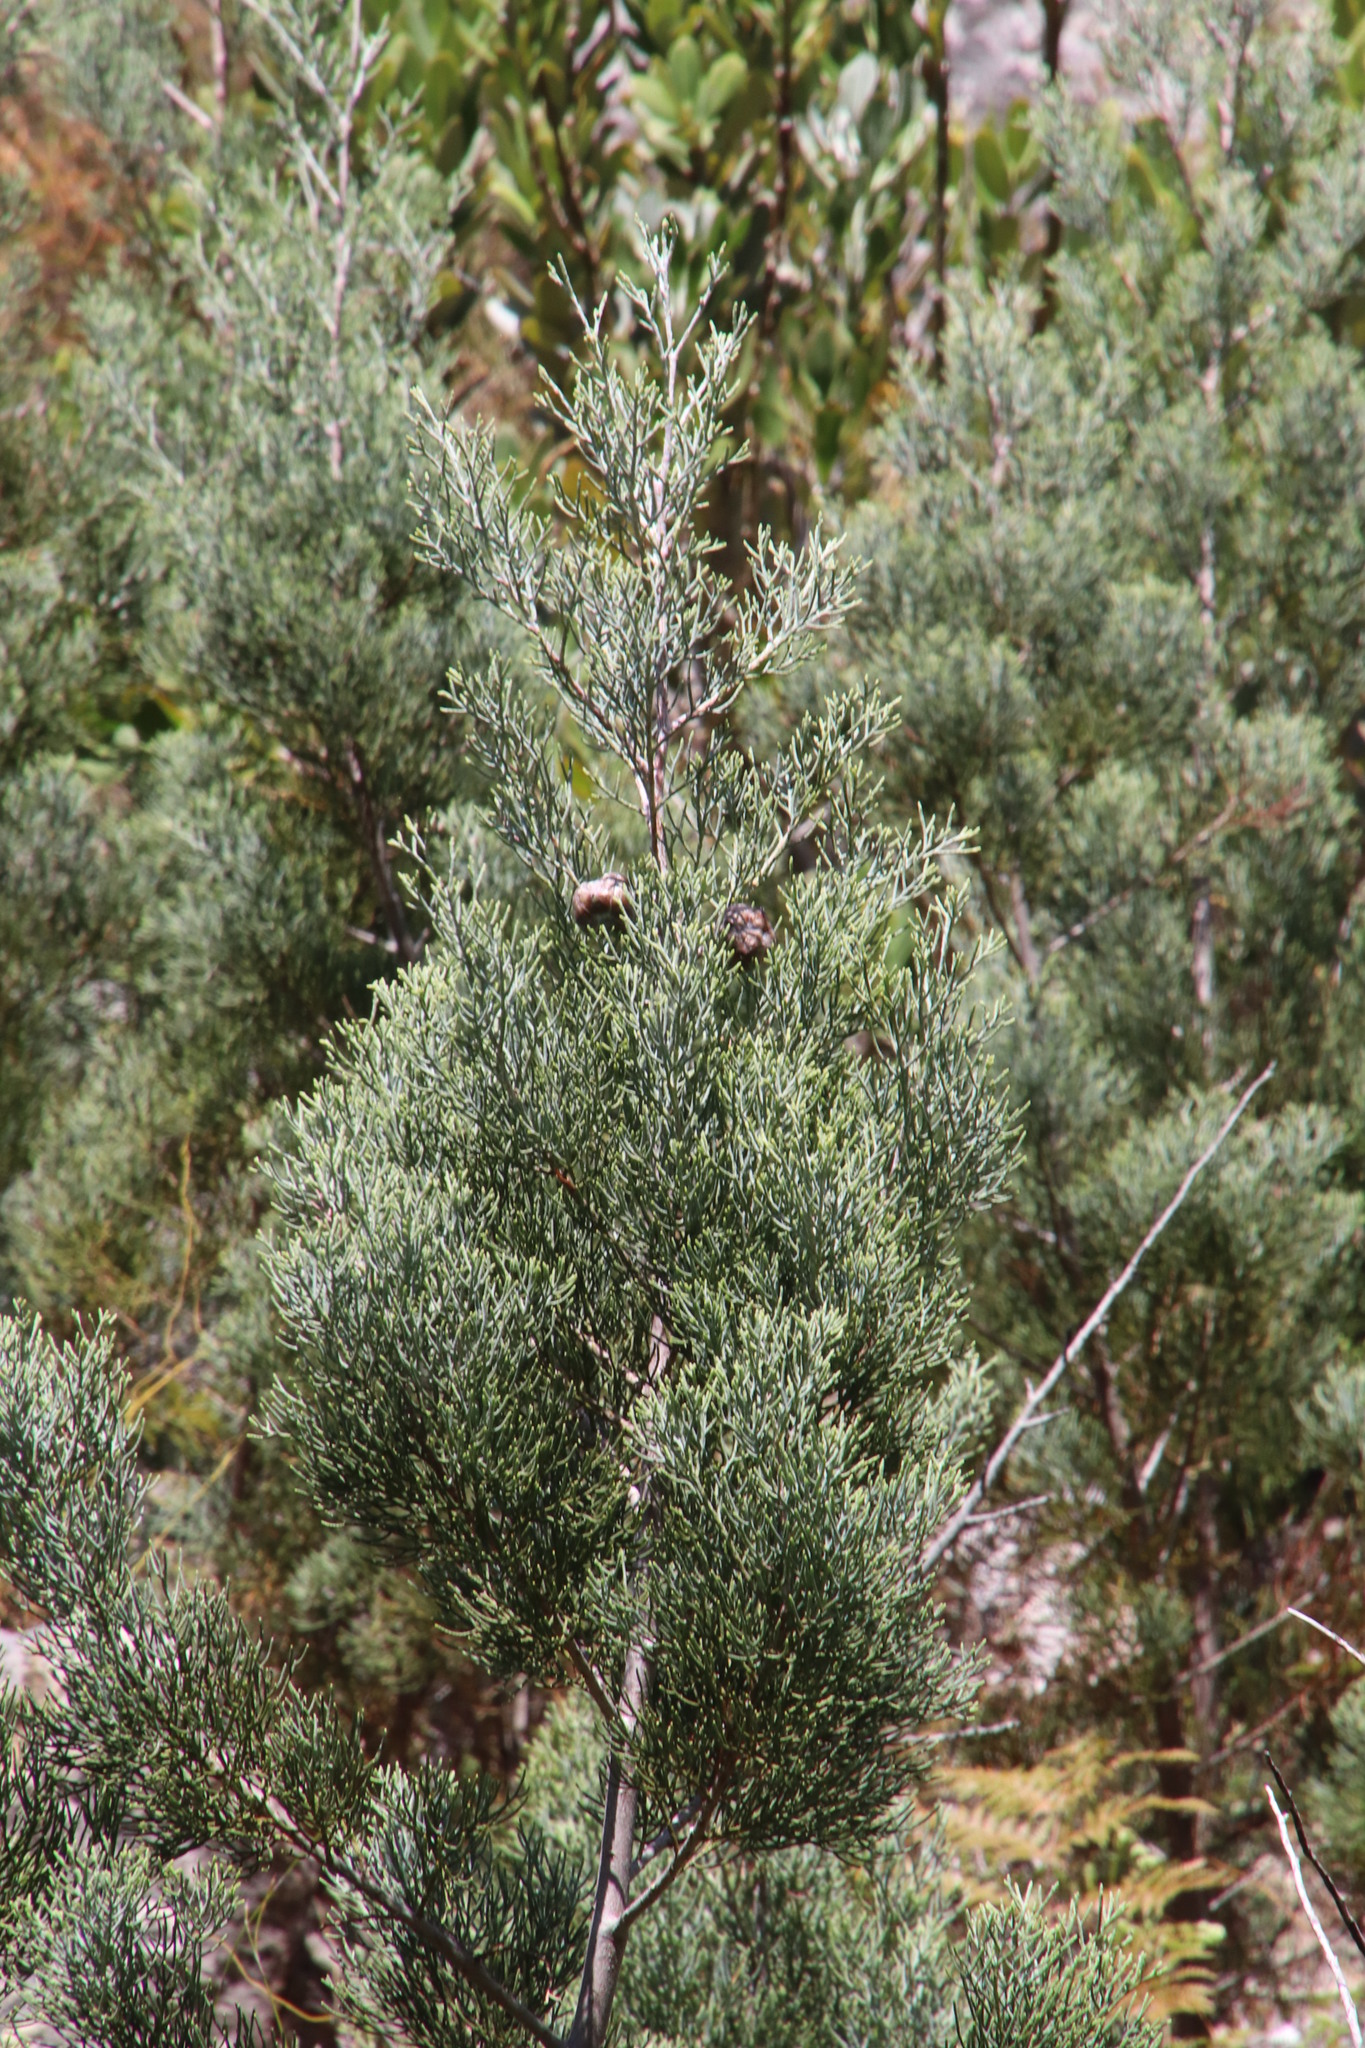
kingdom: Plantae
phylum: Tracheophyta
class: Pinopsida
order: Pinales
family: Cupressaceae
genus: Widdringtonia
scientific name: Widdringtonia nodiflora
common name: Cape cypress
